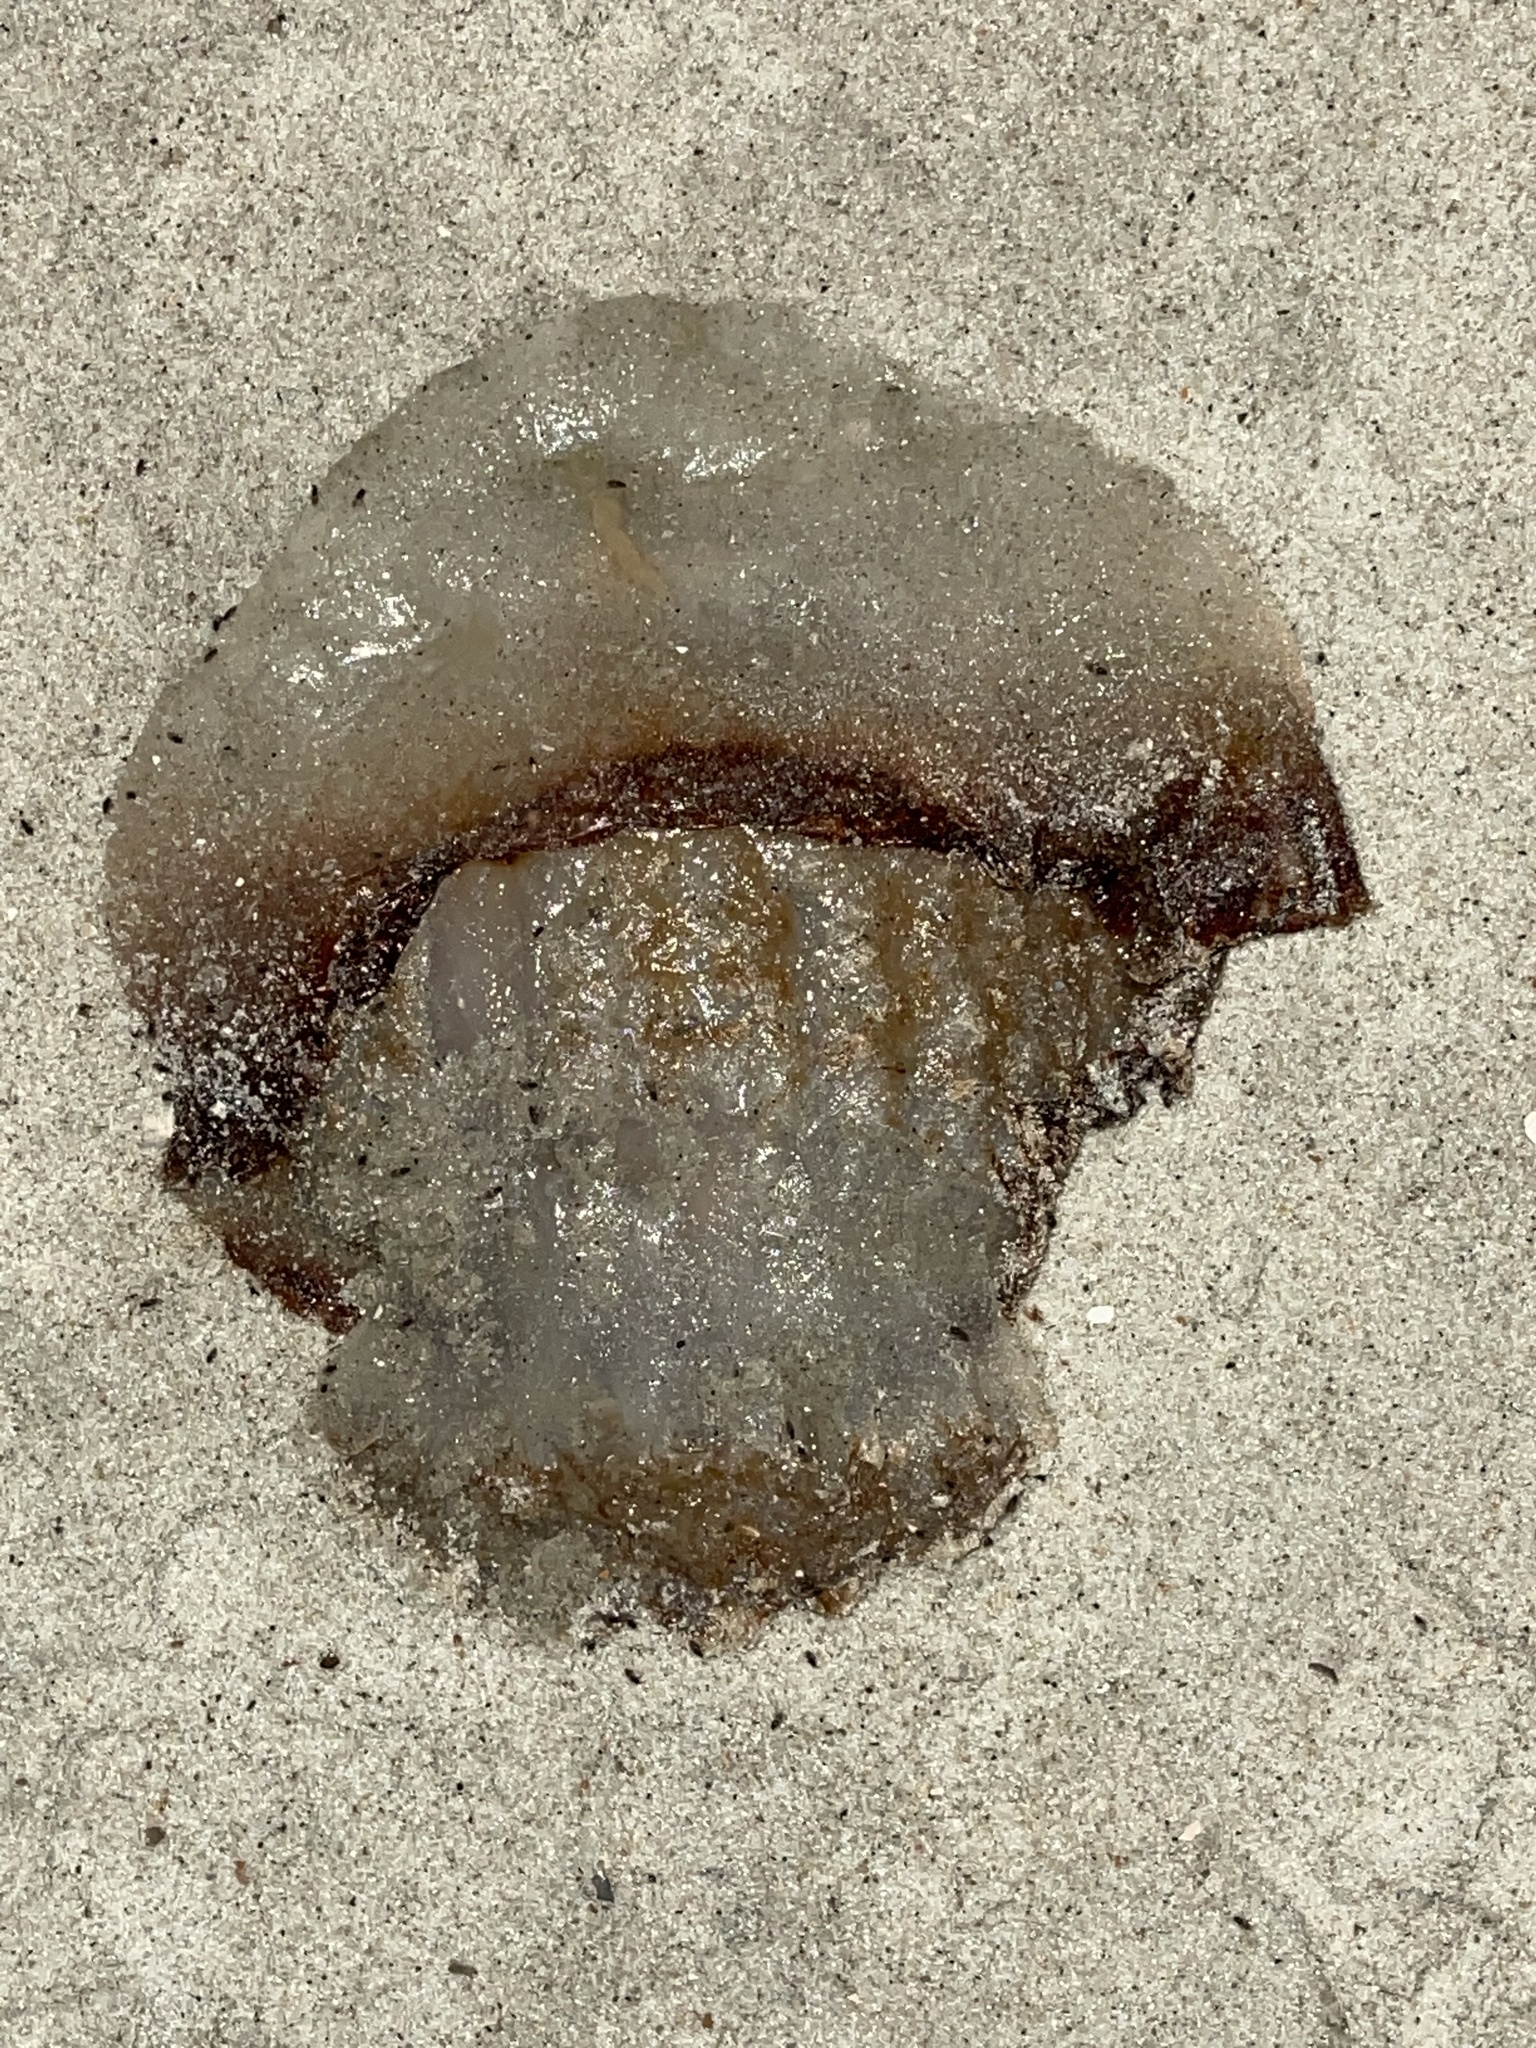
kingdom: Animalia
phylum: Cnidaria
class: Scyphozoa
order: Rhizostomeae
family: Stomolophidae
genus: Stomolophus
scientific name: Stomolophus meleagris
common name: Cabbagehead
